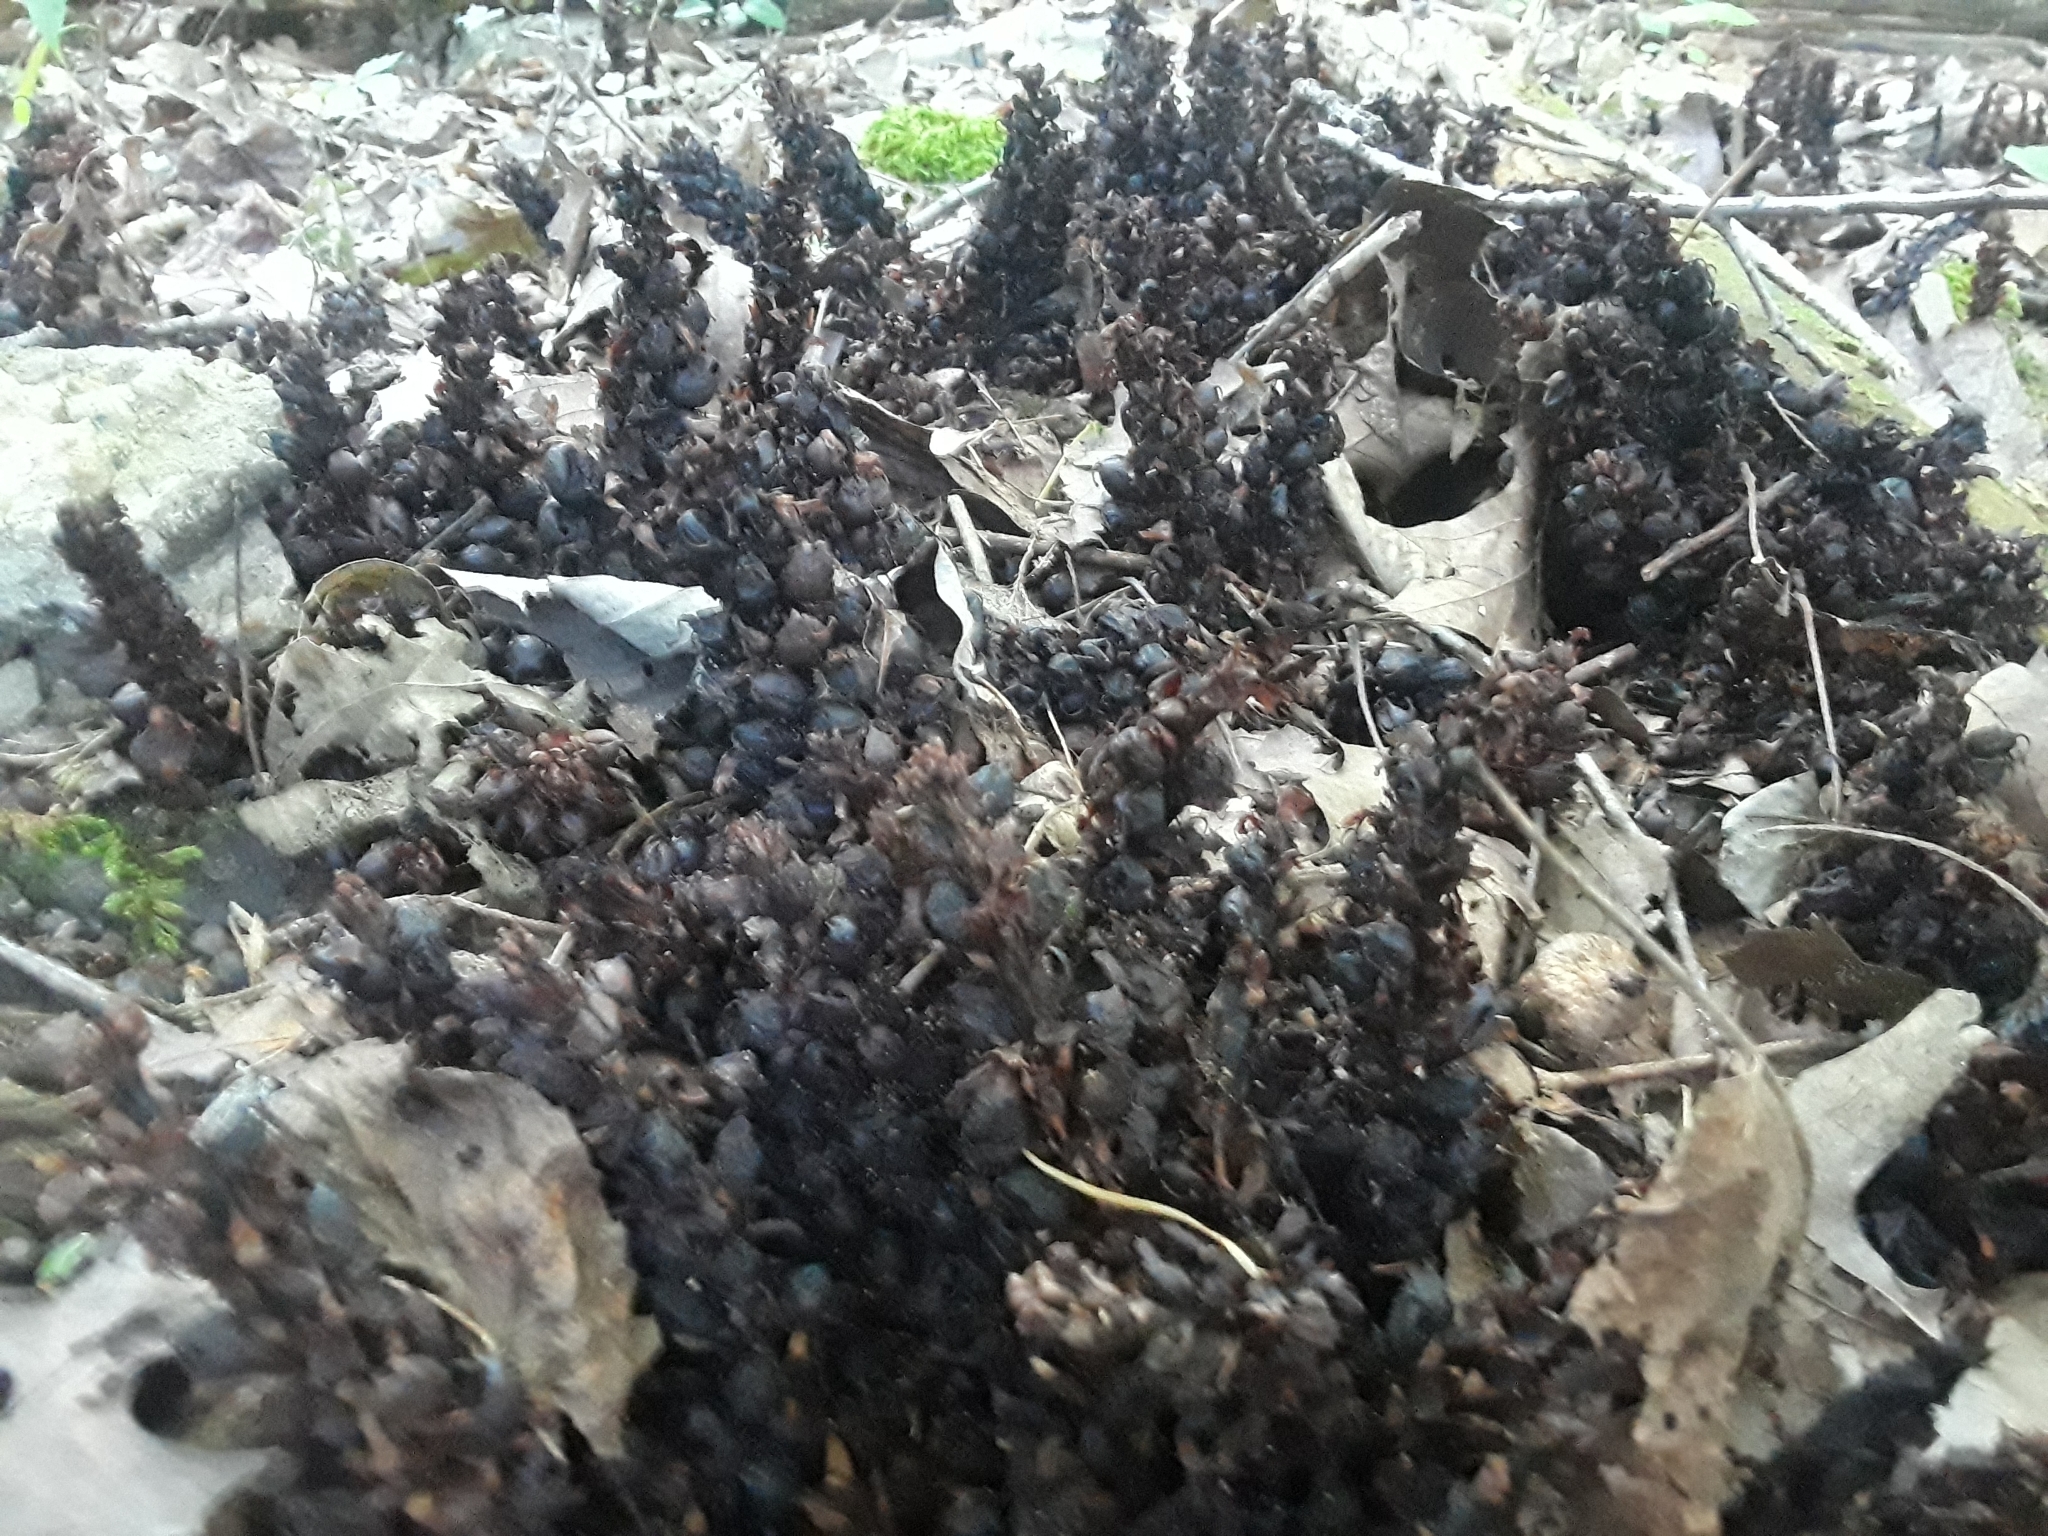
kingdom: Plantae
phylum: Tracheophyta
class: Magnoliopsida
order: Lamiales
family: Orobanchaceae
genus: Conopholis
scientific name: Conopholis americana
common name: American cancer-root
